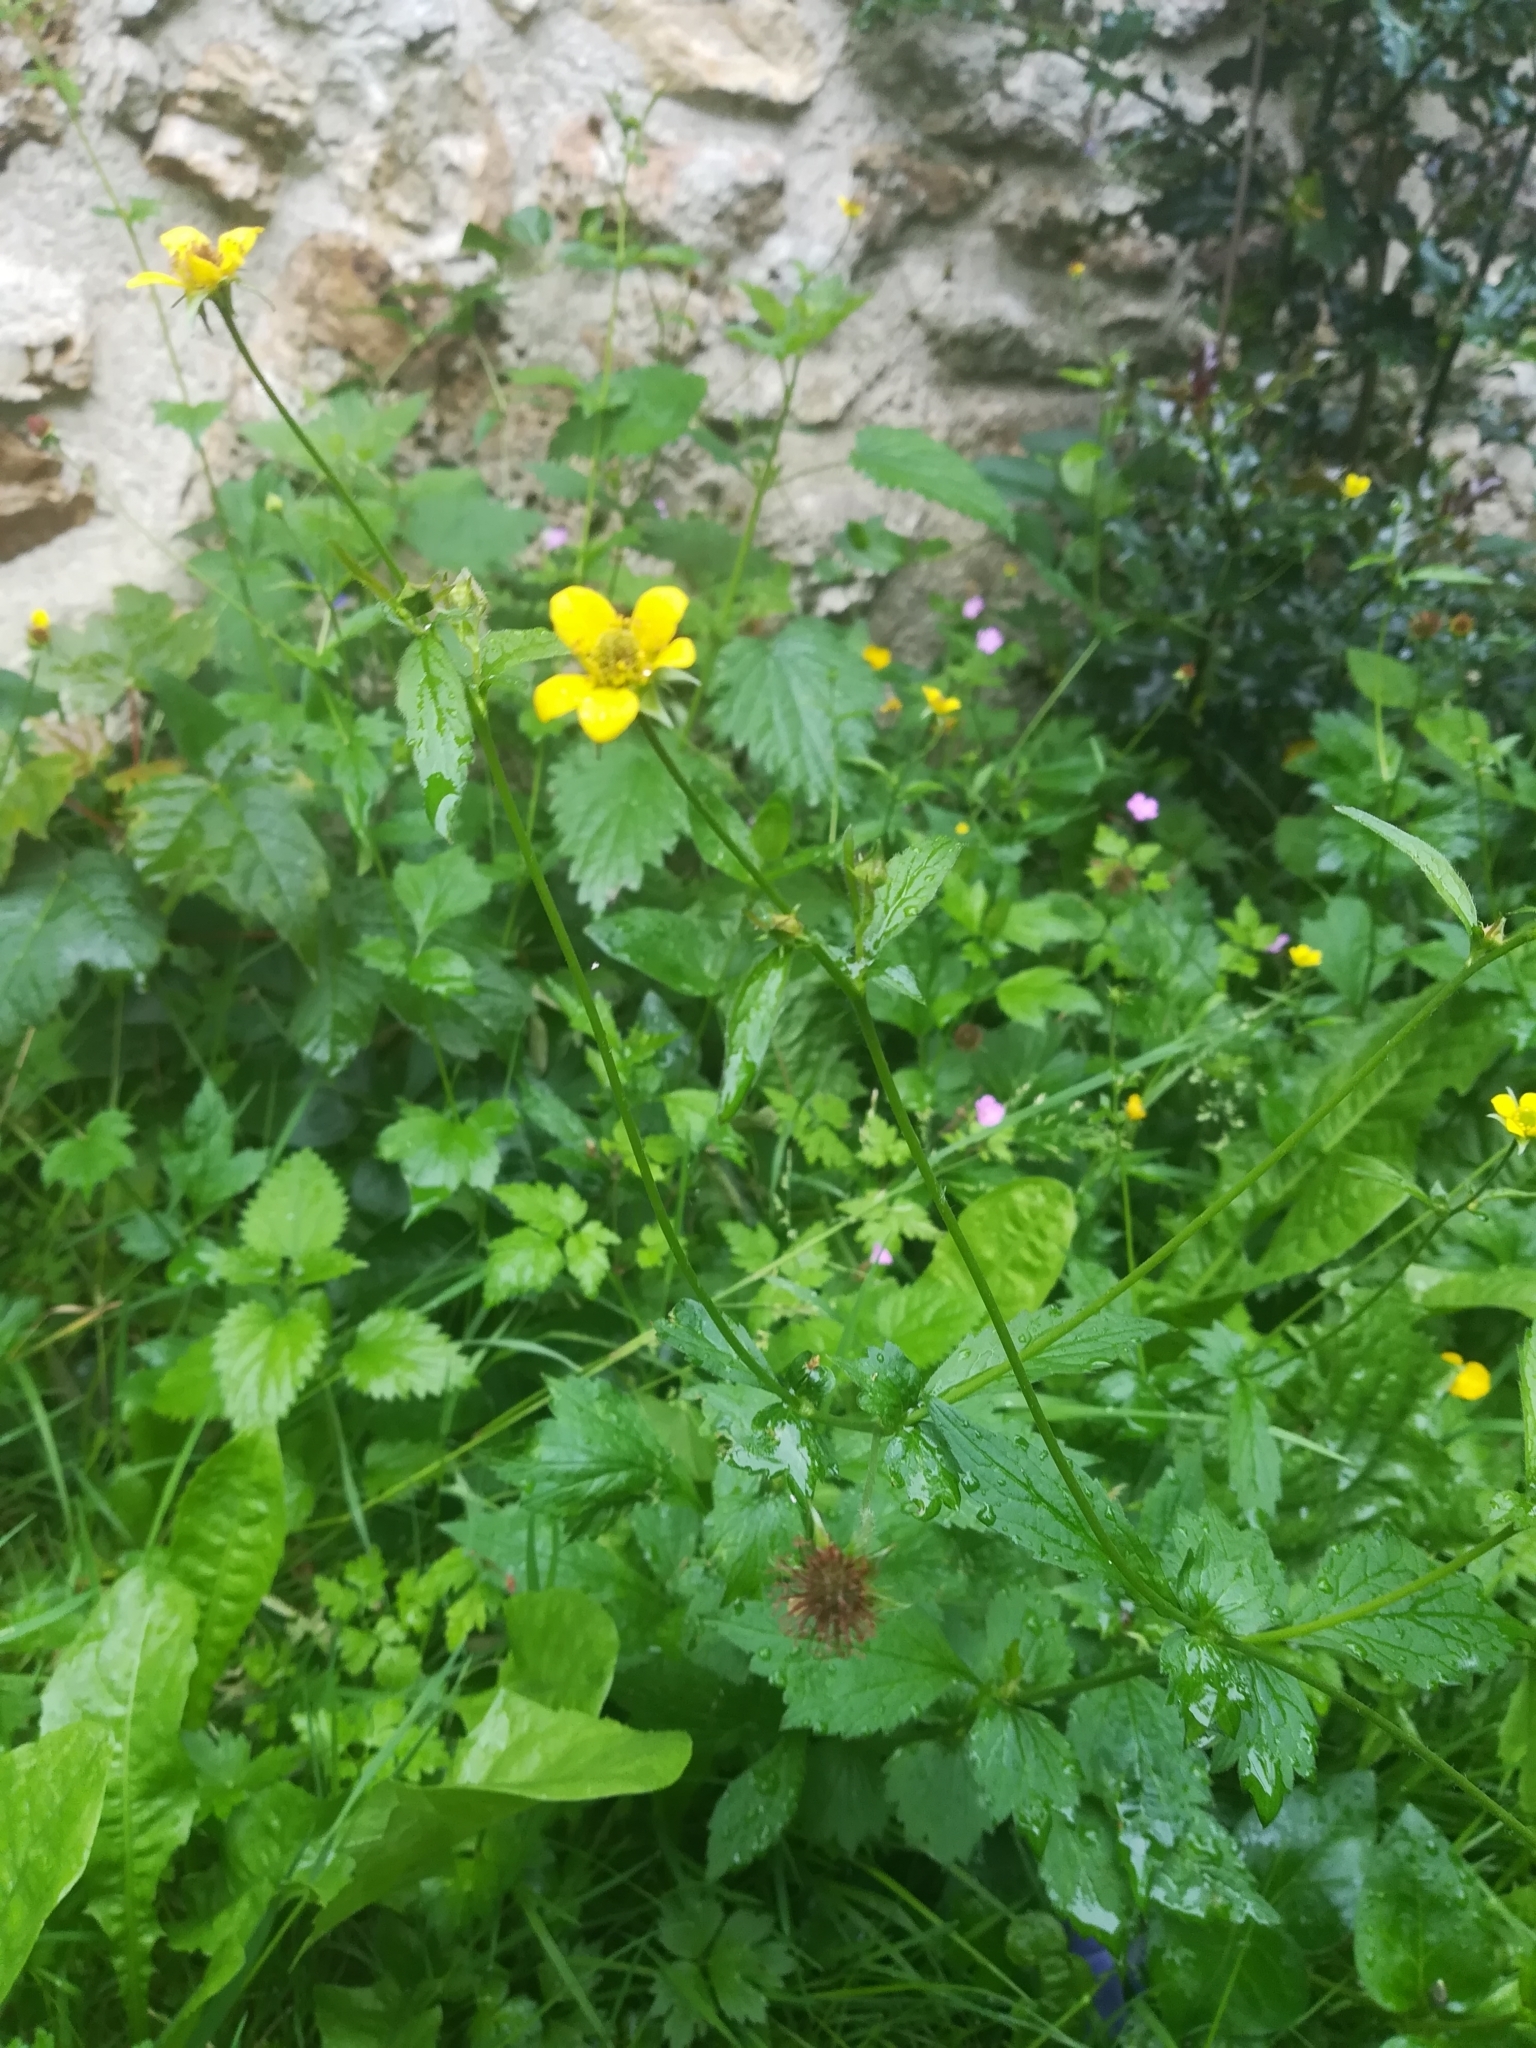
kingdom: Plantae
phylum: Tracheophyta
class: Magnoliopsida
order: Rosales
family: Rosaceae
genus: Geum
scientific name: Geum urbanum
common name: Wood avens
